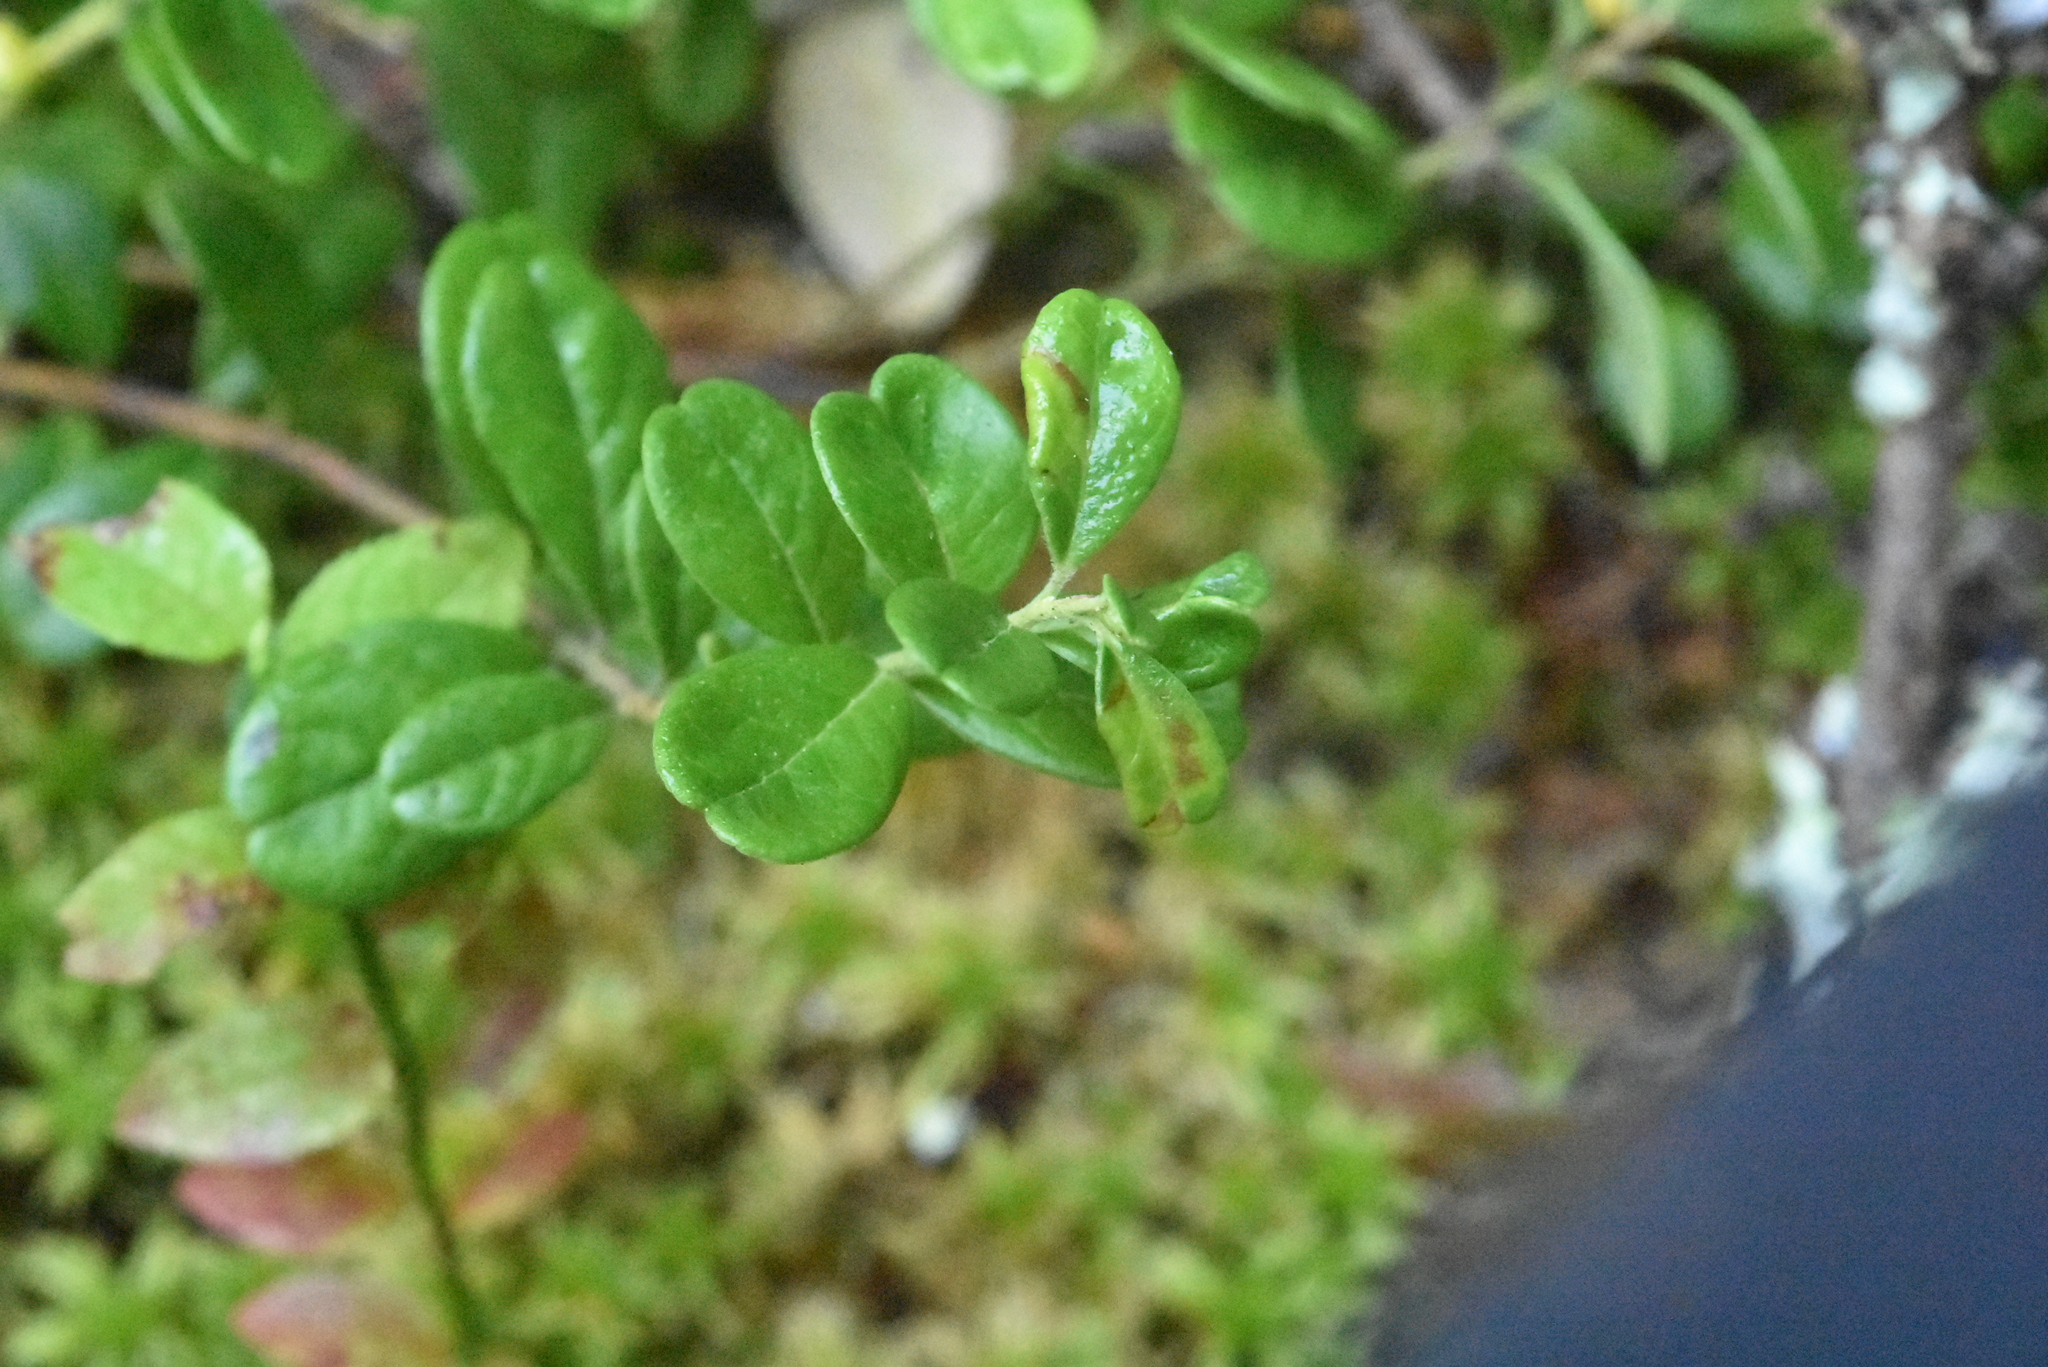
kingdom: Plantae
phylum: Tracheophyta
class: Magnoliopsida
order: Ericales
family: Ericaceae
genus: Vaccinium
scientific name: Vaccinium vitis-idaea
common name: Cowberry
